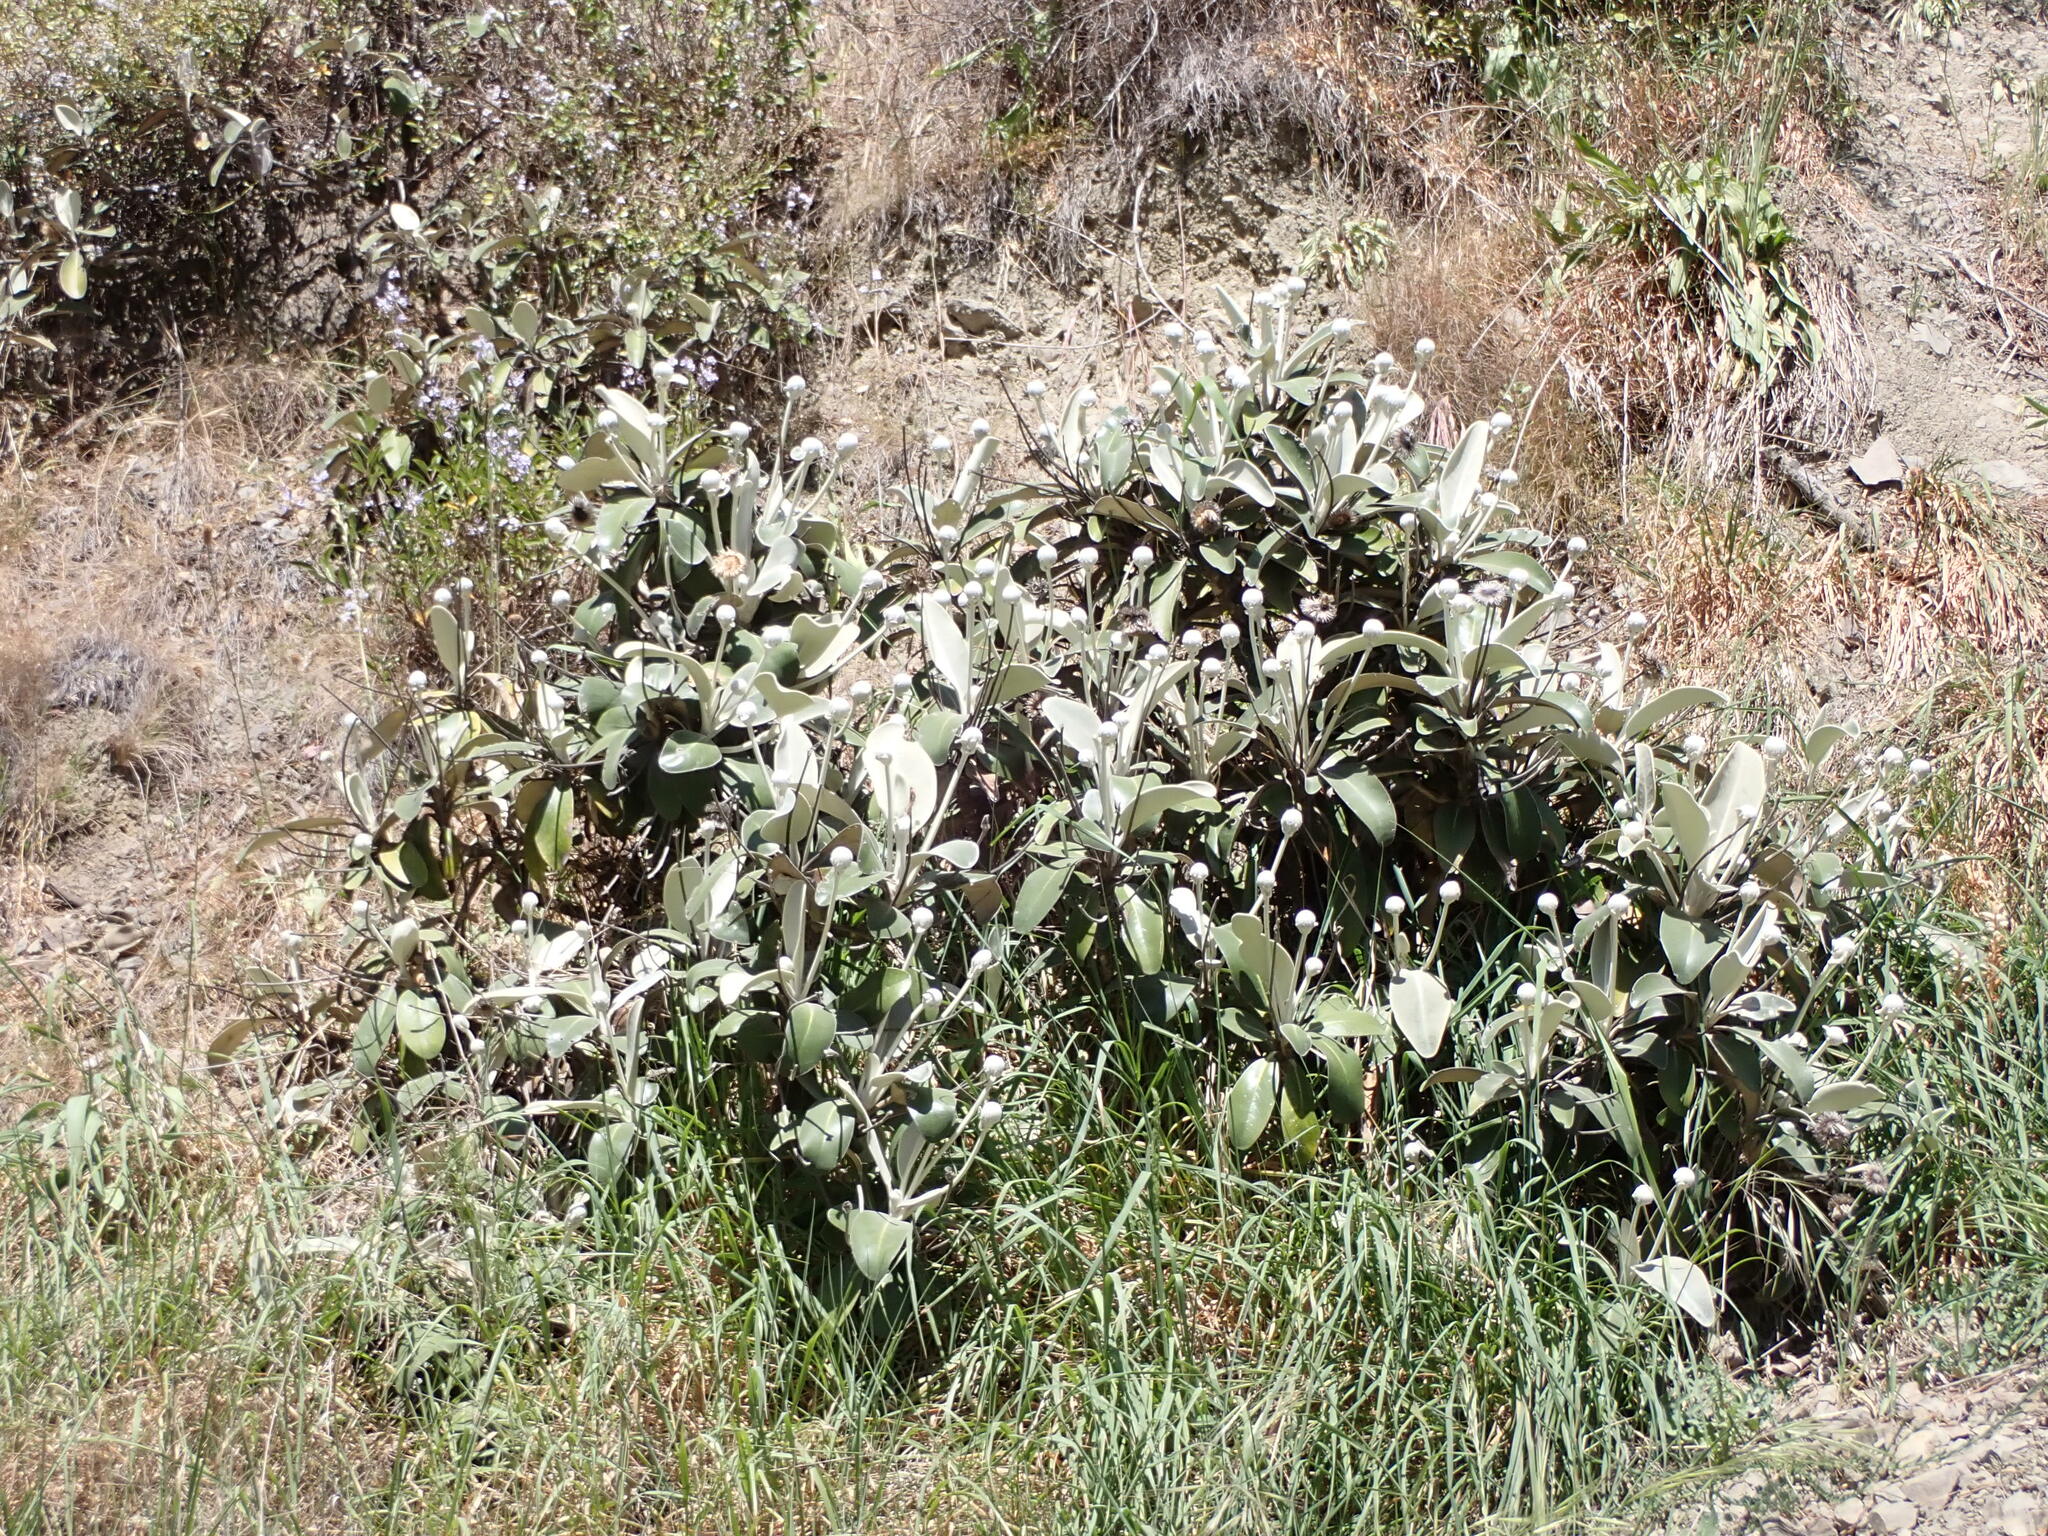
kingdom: Plantae
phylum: Tracheophyta
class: Magnoliopsida
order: Asterales
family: Asteraceae
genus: Pachystegia
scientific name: Pachystegia insignis
